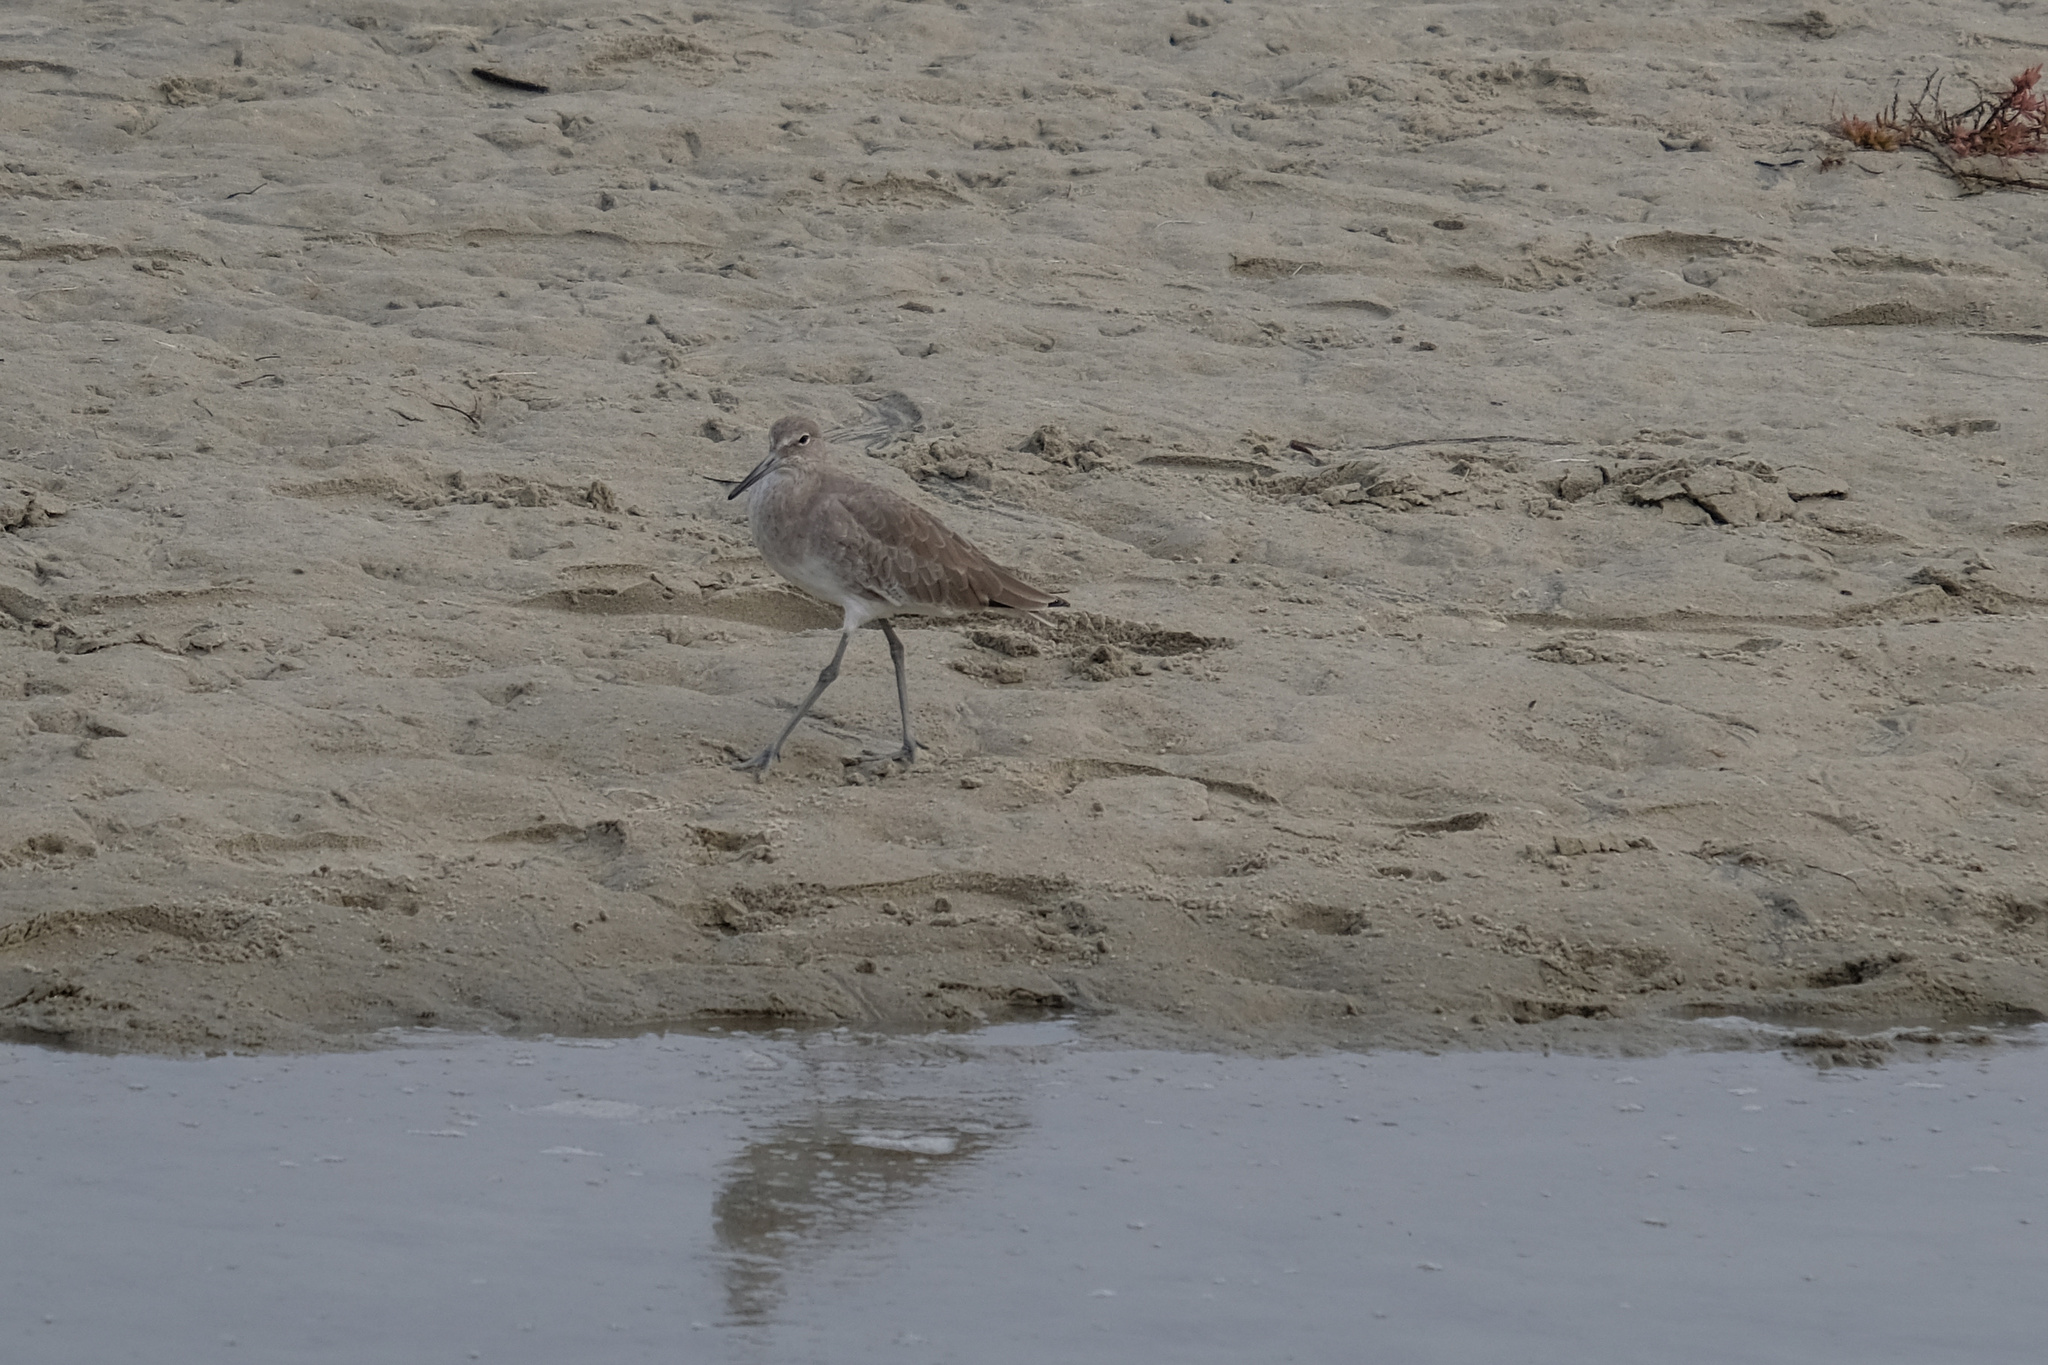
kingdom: Animalia
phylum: Chordata
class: Aves
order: Charadriiformes
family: Scolopacidae
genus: Tringa
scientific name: Tringa semipalmata
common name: Willet
